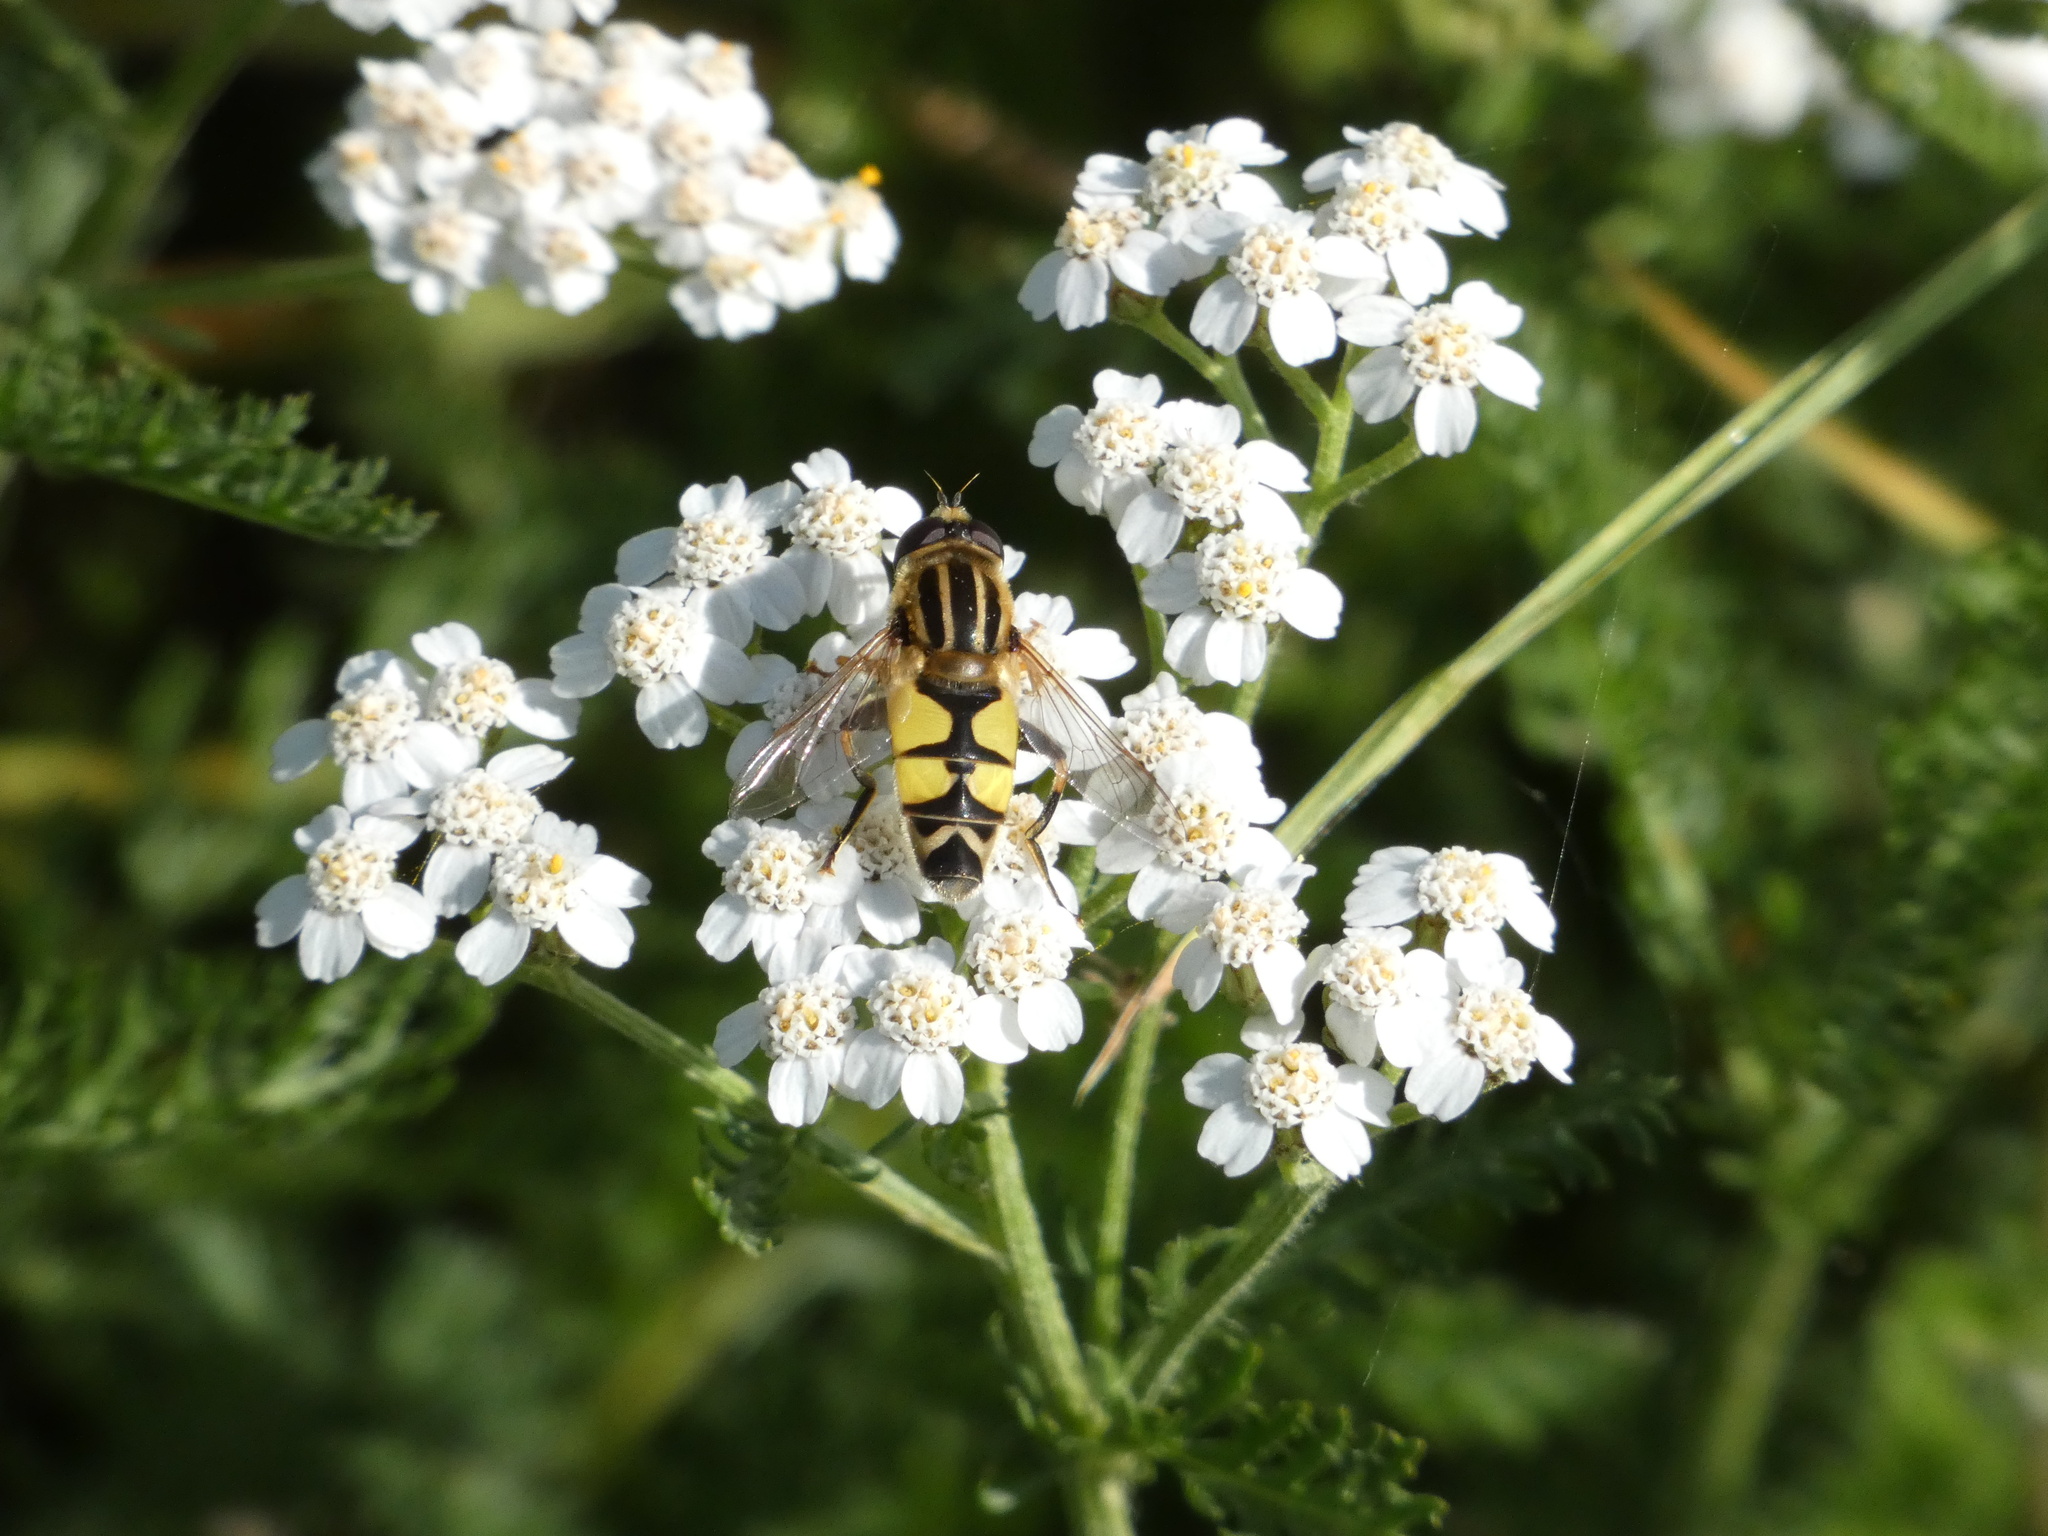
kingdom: Animalia
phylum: Arthropoda
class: Insecta
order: Diptera
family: Syrphidae
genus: Helophilus
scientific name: Helophilus trivittatus
